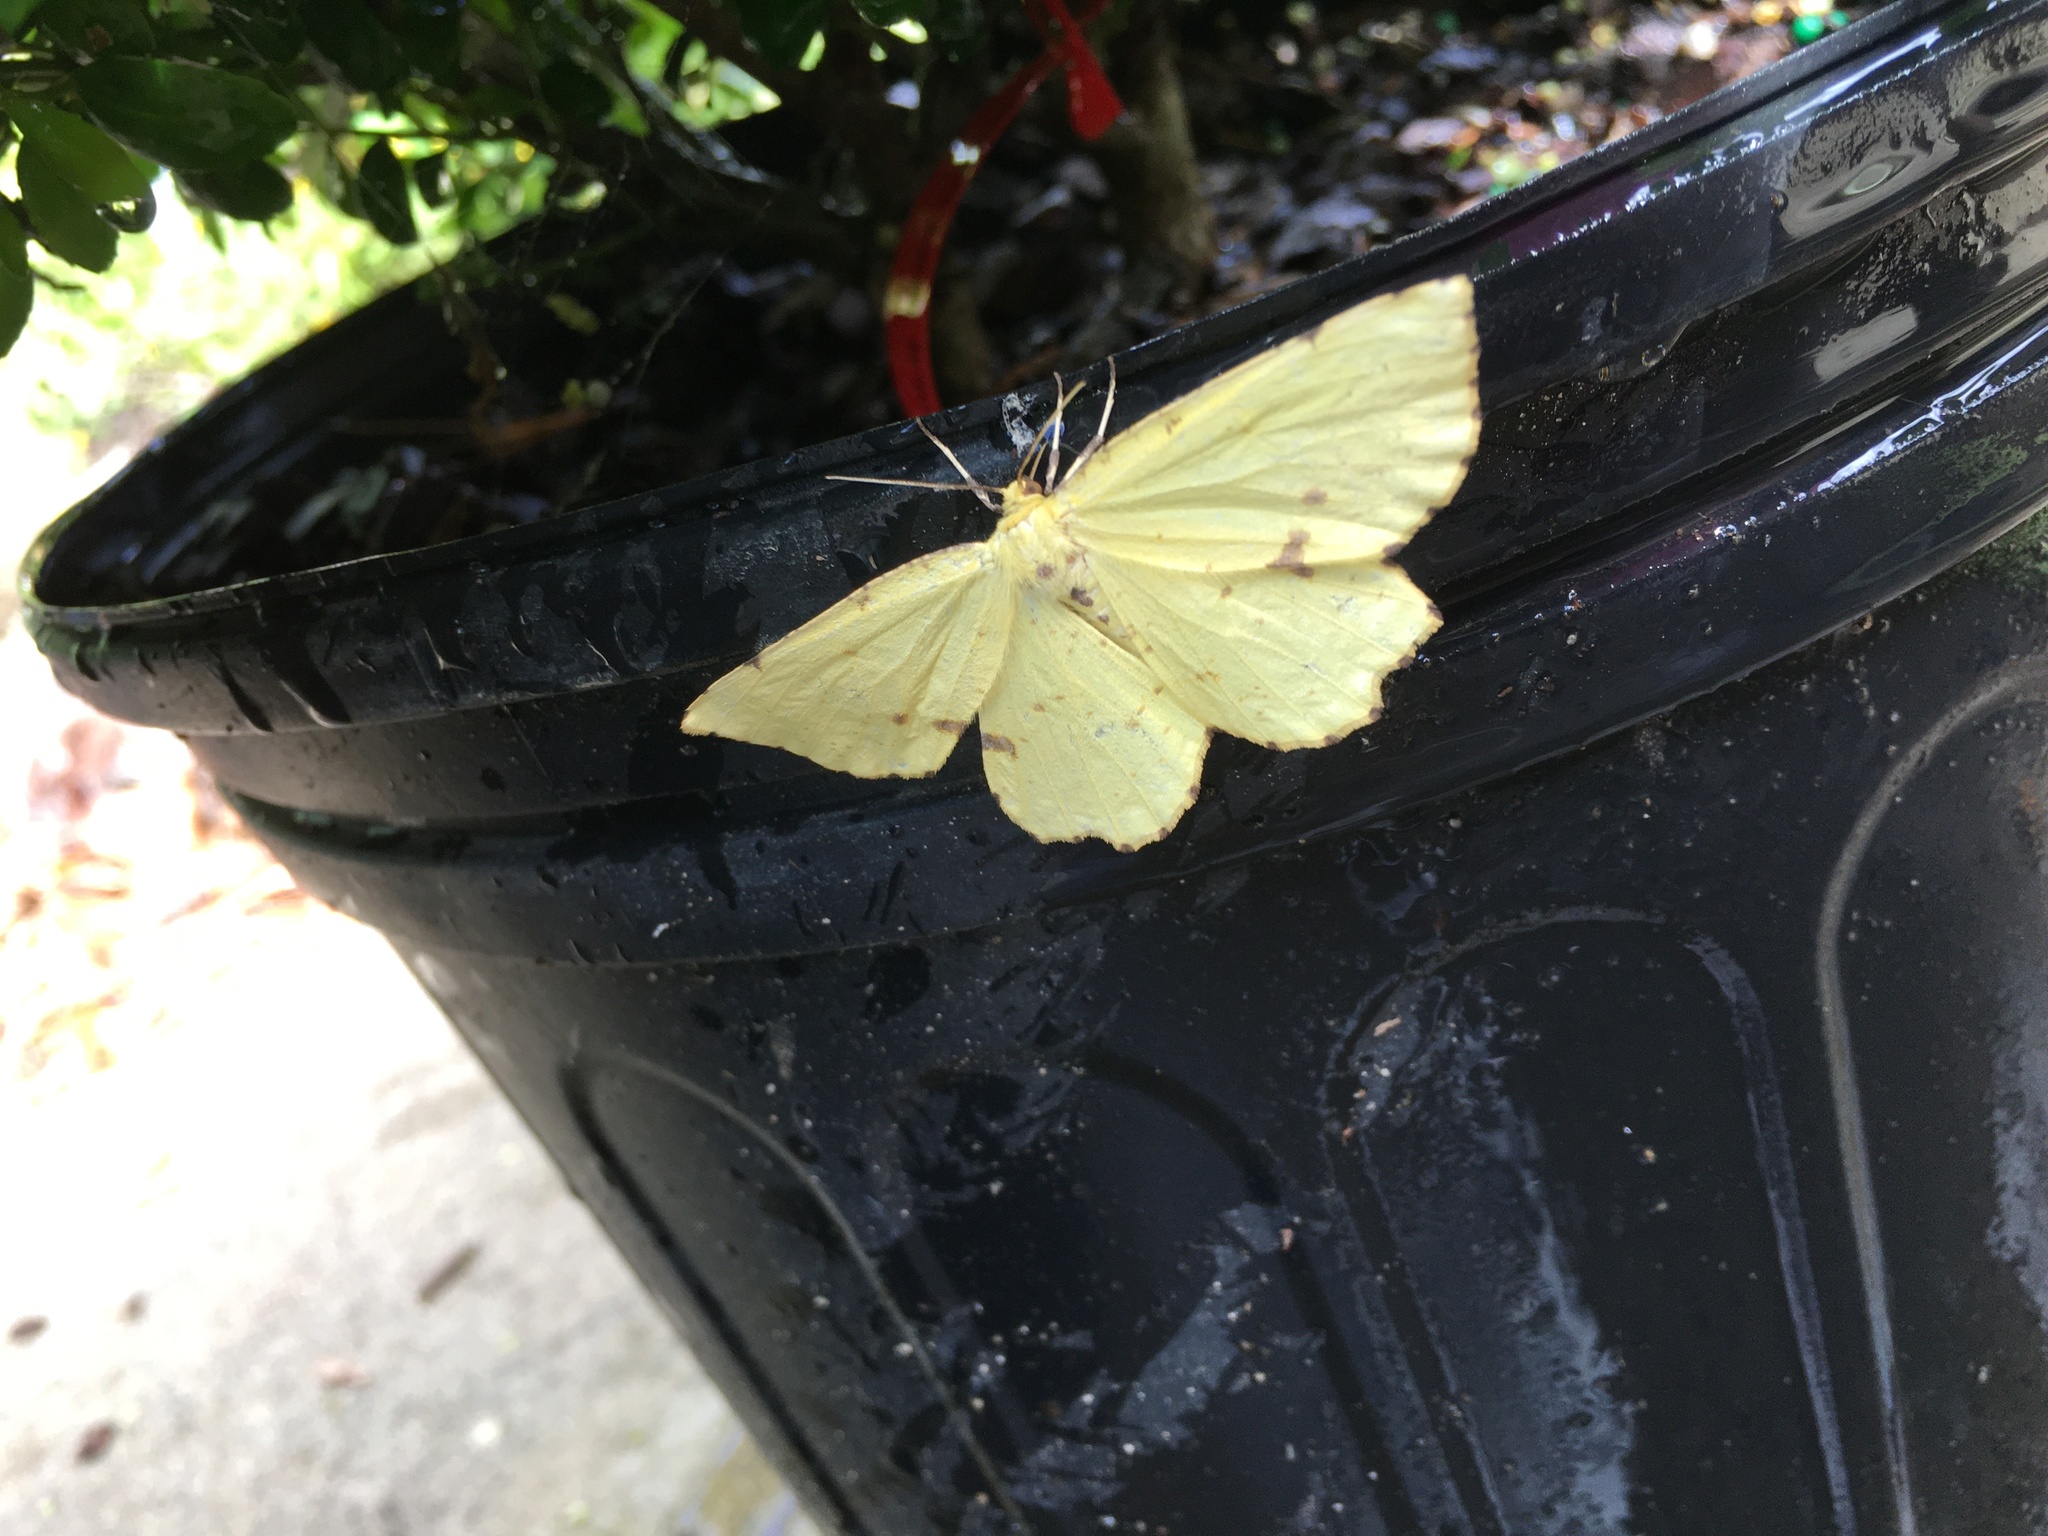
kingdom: Animalia
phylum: Arthropoda
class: Insecta
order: Lepidoptera
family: Geometridae
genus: Xanthotype
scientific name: Xanthotype
